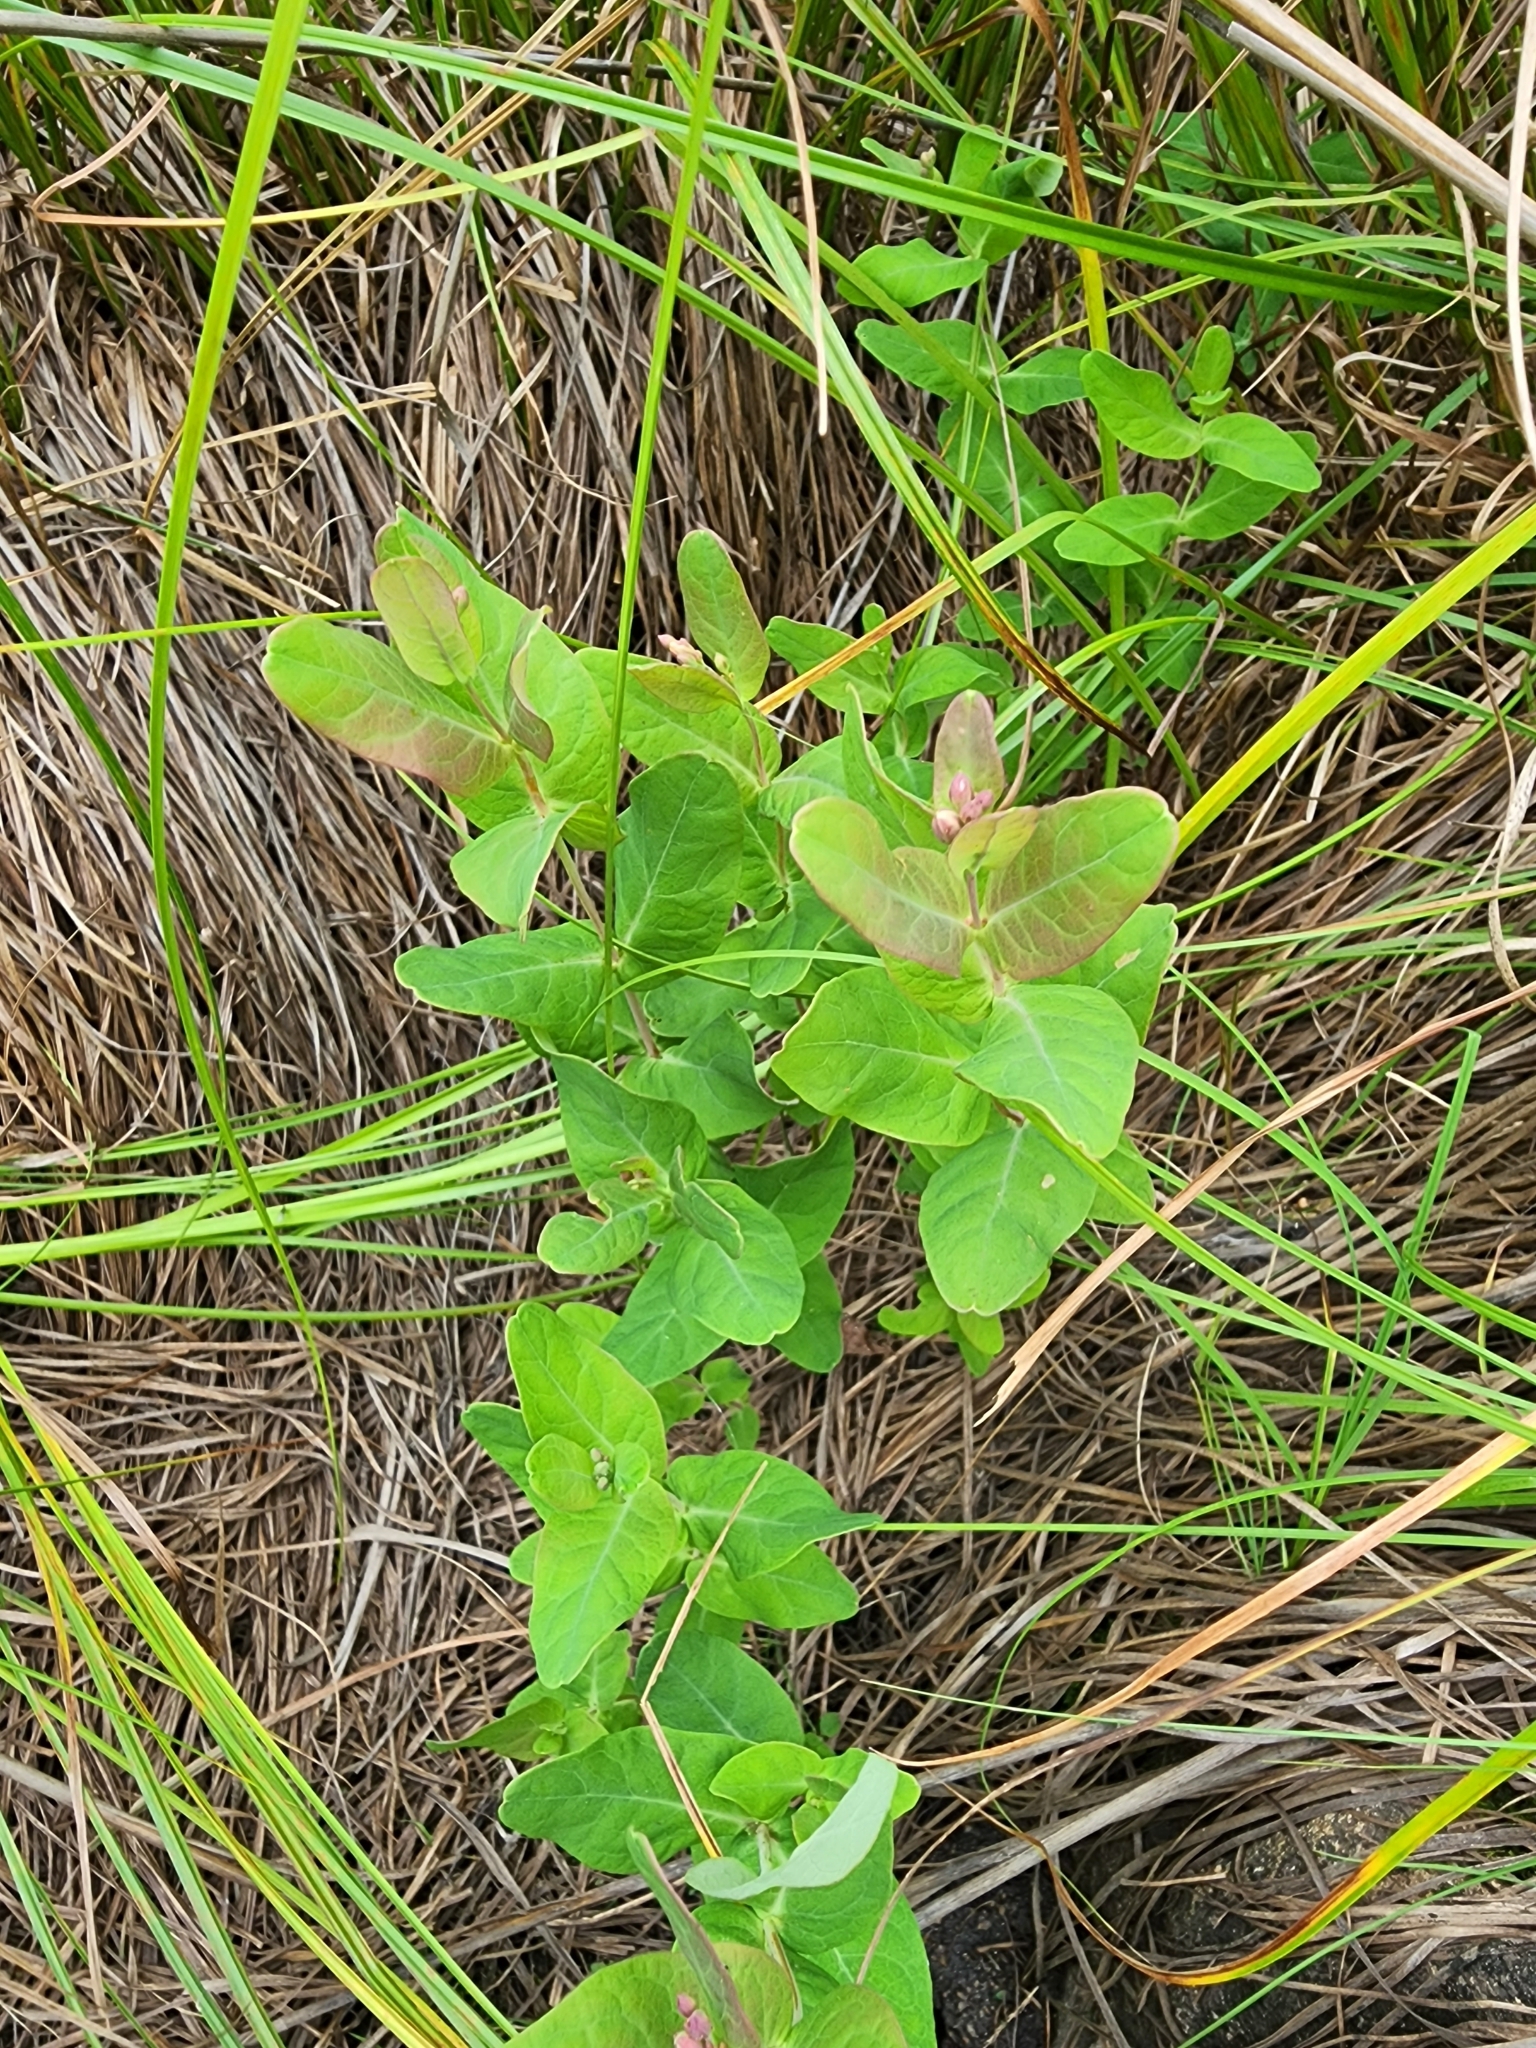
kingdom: Plantae
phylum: Tracheophyta
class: Magnoliopsida
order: Malpighiales
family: Hypericaceae
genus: Triadenum
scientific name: Triadenum fraseri
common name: Fraser's marsh st. johnswort
